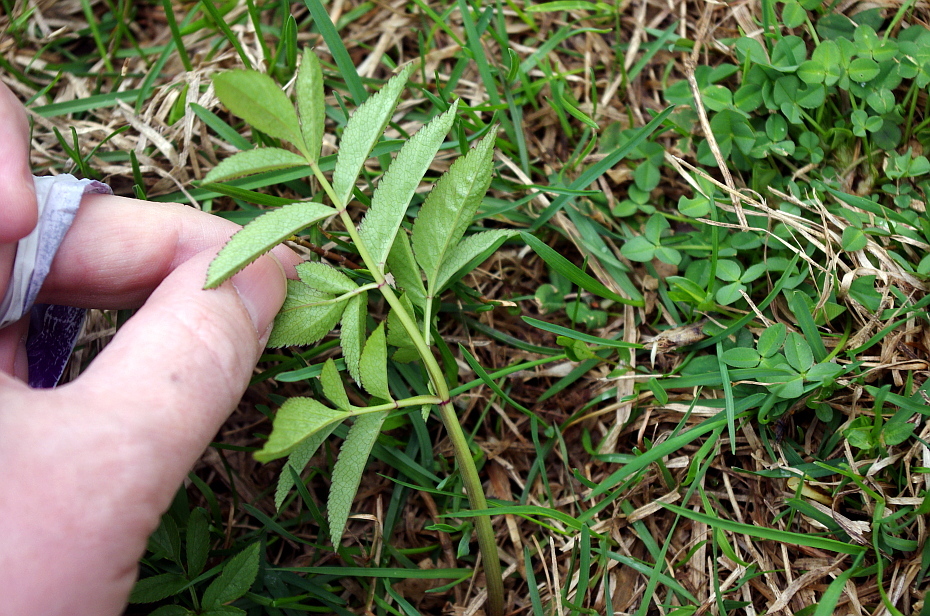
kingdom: Plantae
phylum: Tracheophyta
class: Magnoliopsida
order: Apiales
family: Apiaceae
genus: Angelica
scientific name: Angelica sylvestris
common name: Wild angelica
